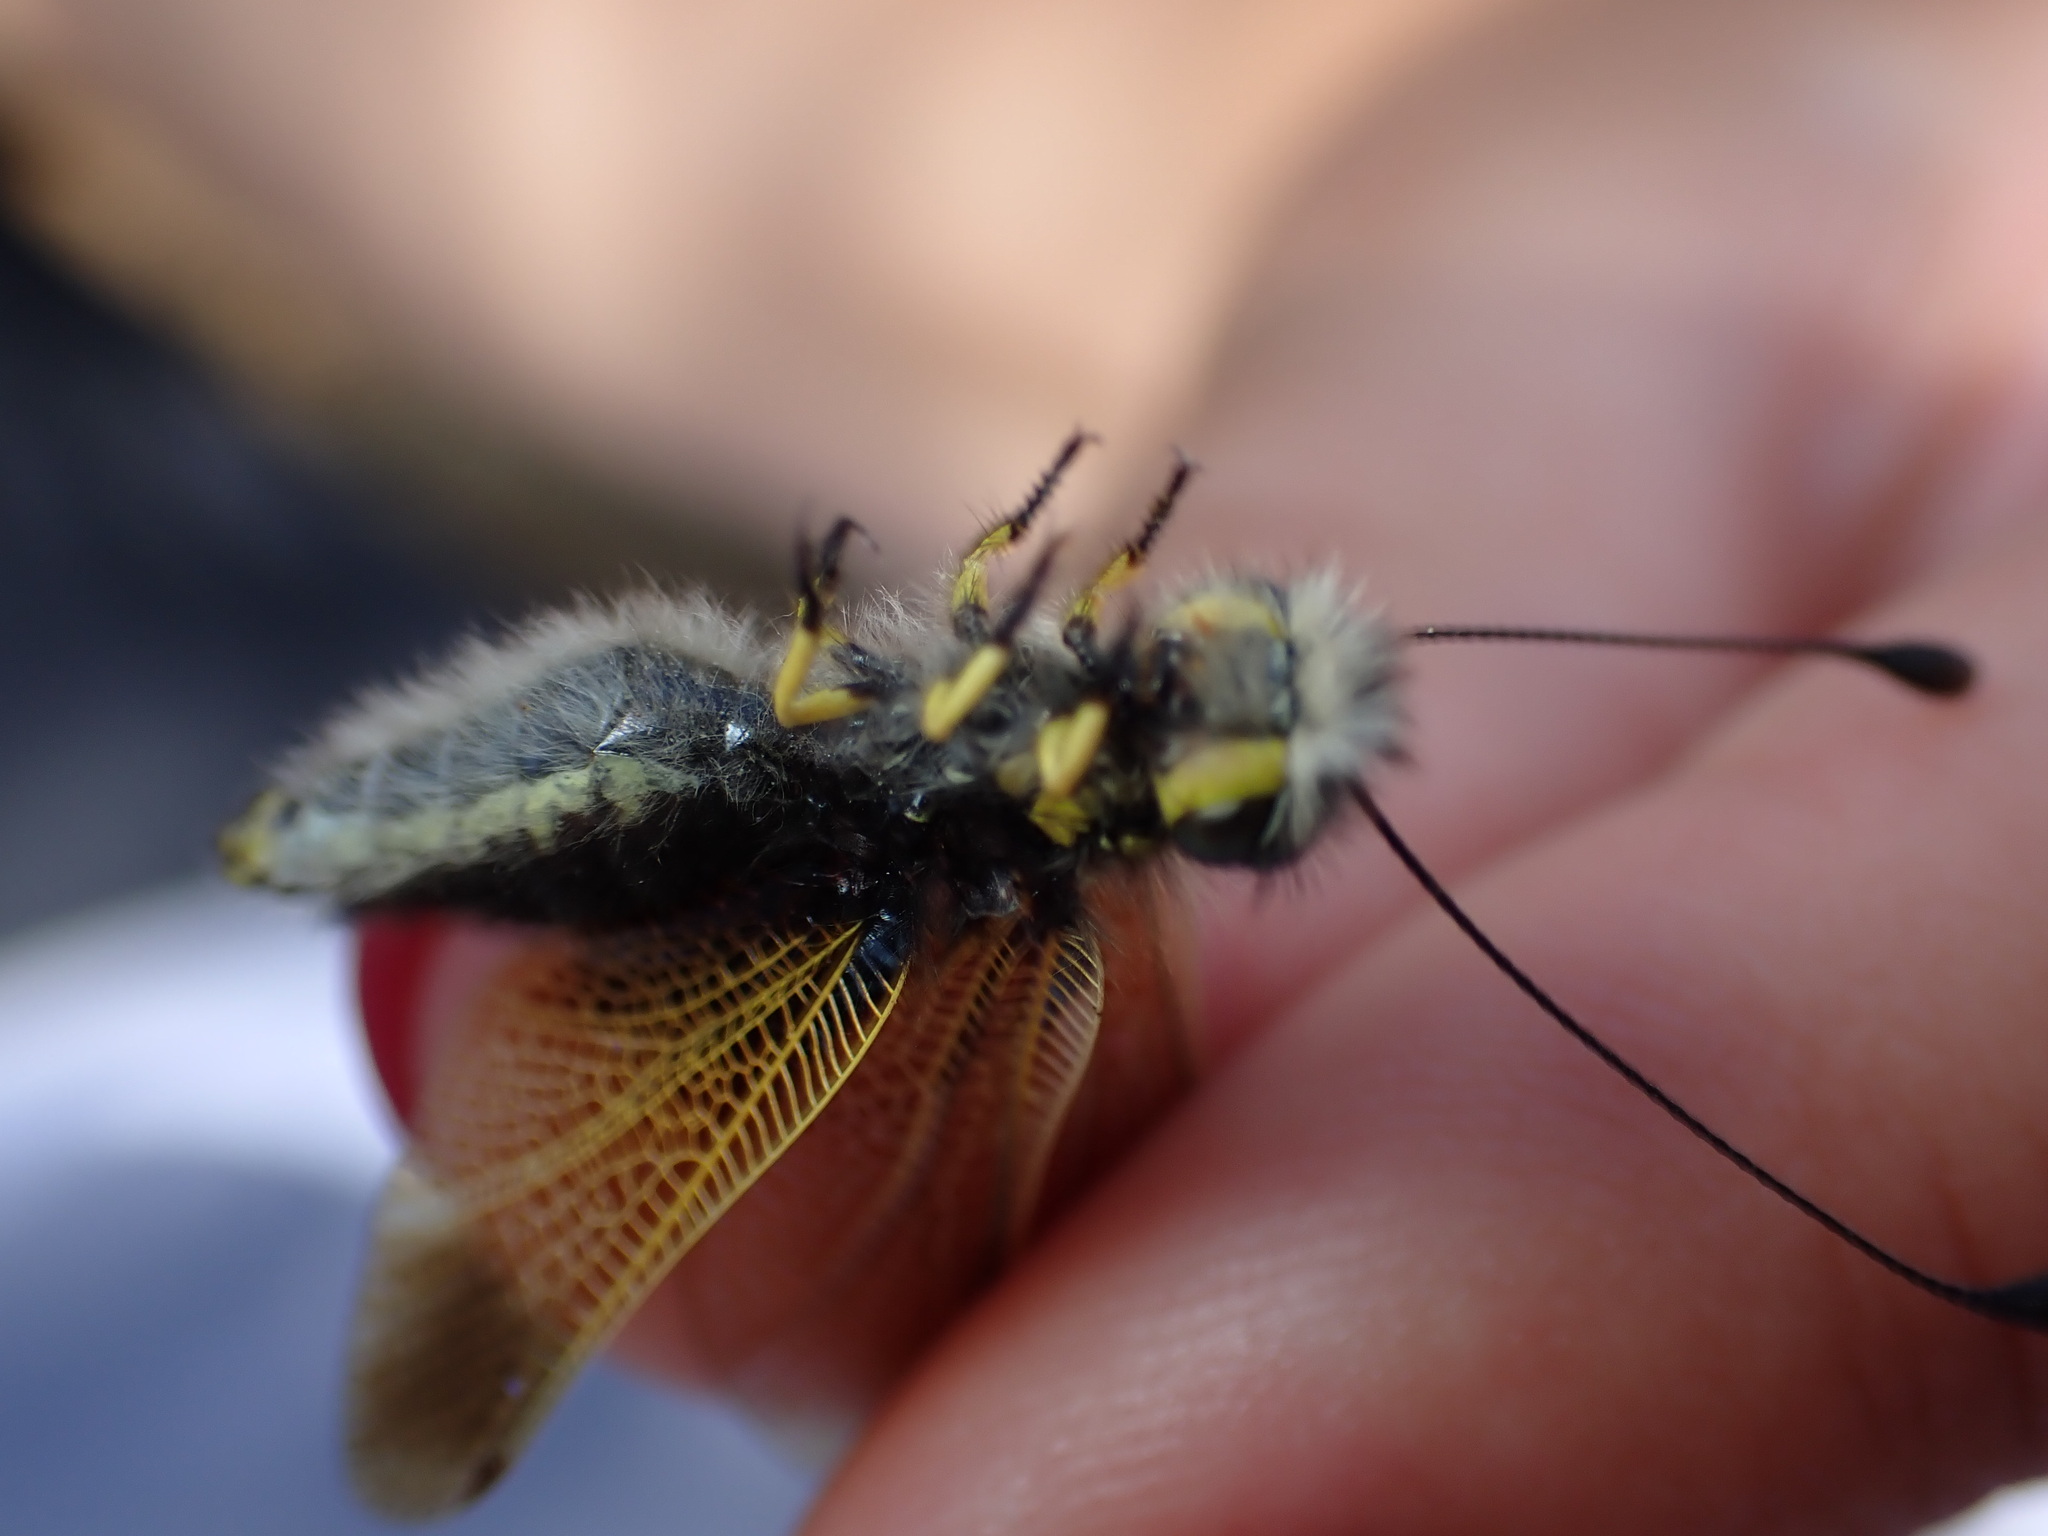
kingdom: Animalia
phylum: Arthropoda
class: Insecta
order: Neuroptera
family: Ascalaphidae
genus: Libelloides
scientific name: Libelloides ictericus
